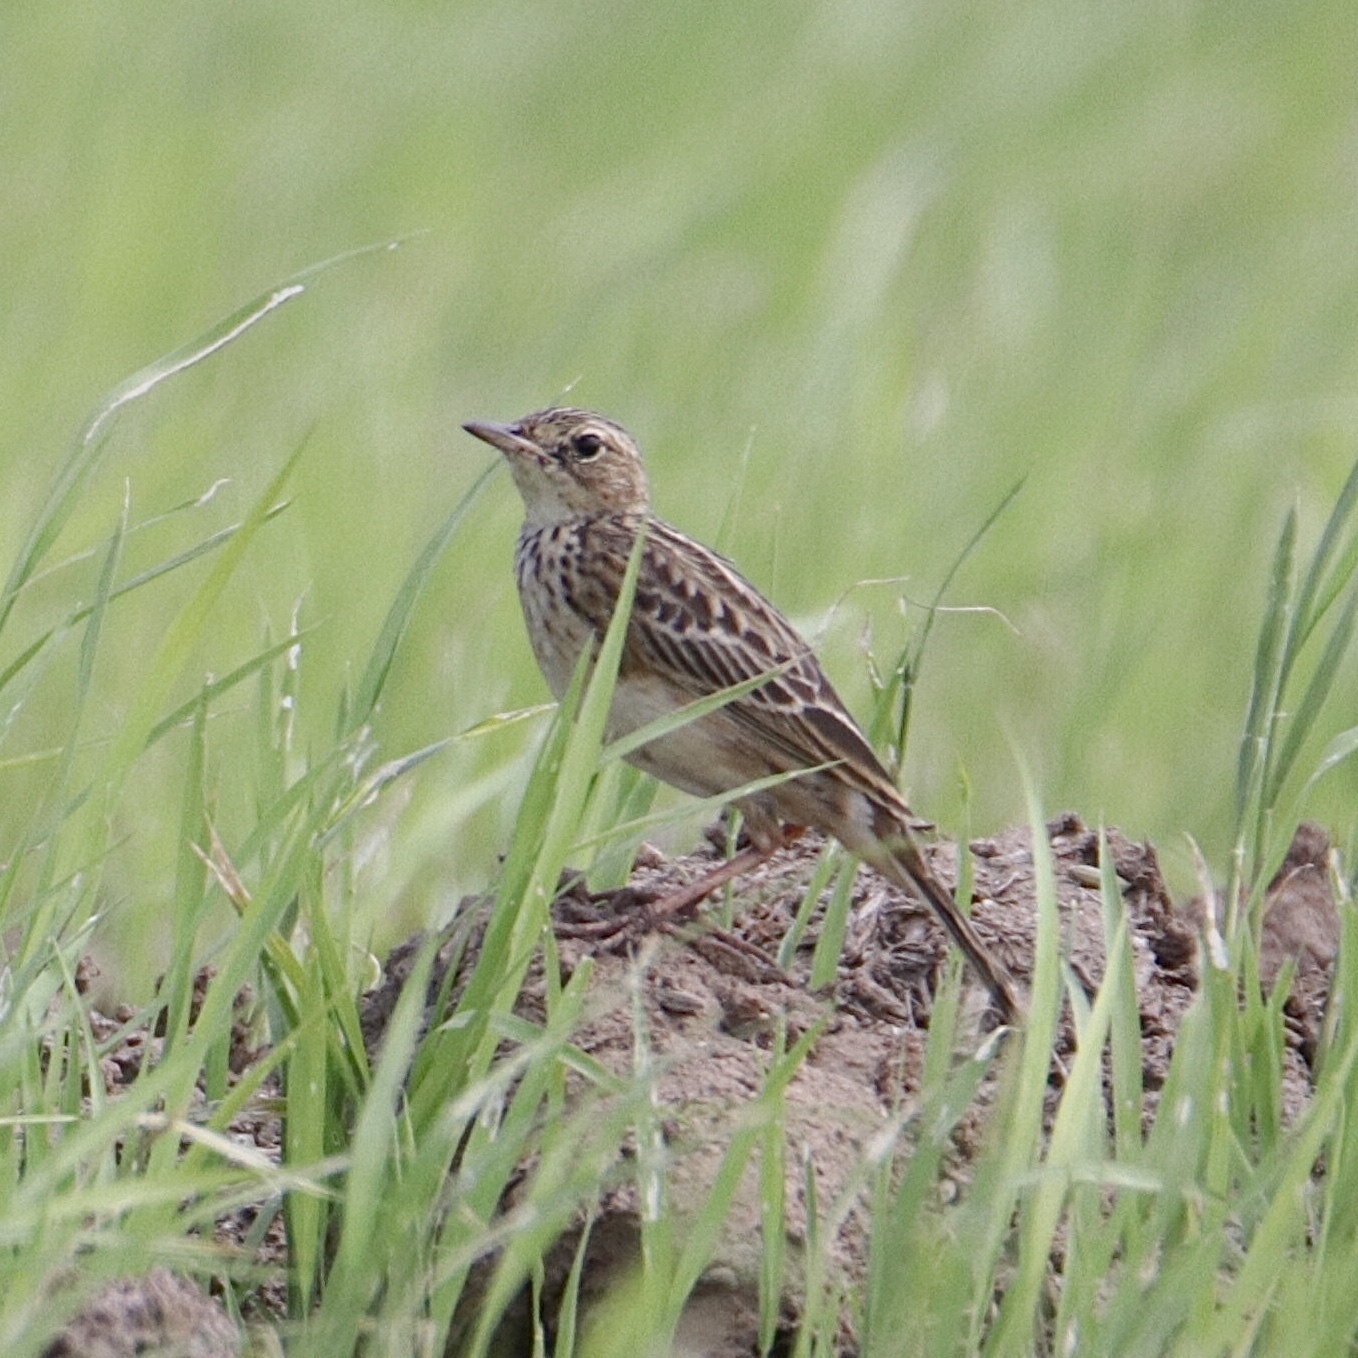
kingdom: Animalia
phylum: Chordata
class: Aves
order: Passeriformes
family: Motacillidae
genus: Anthus
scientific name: Anthus chii
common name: Yellowish pipit
